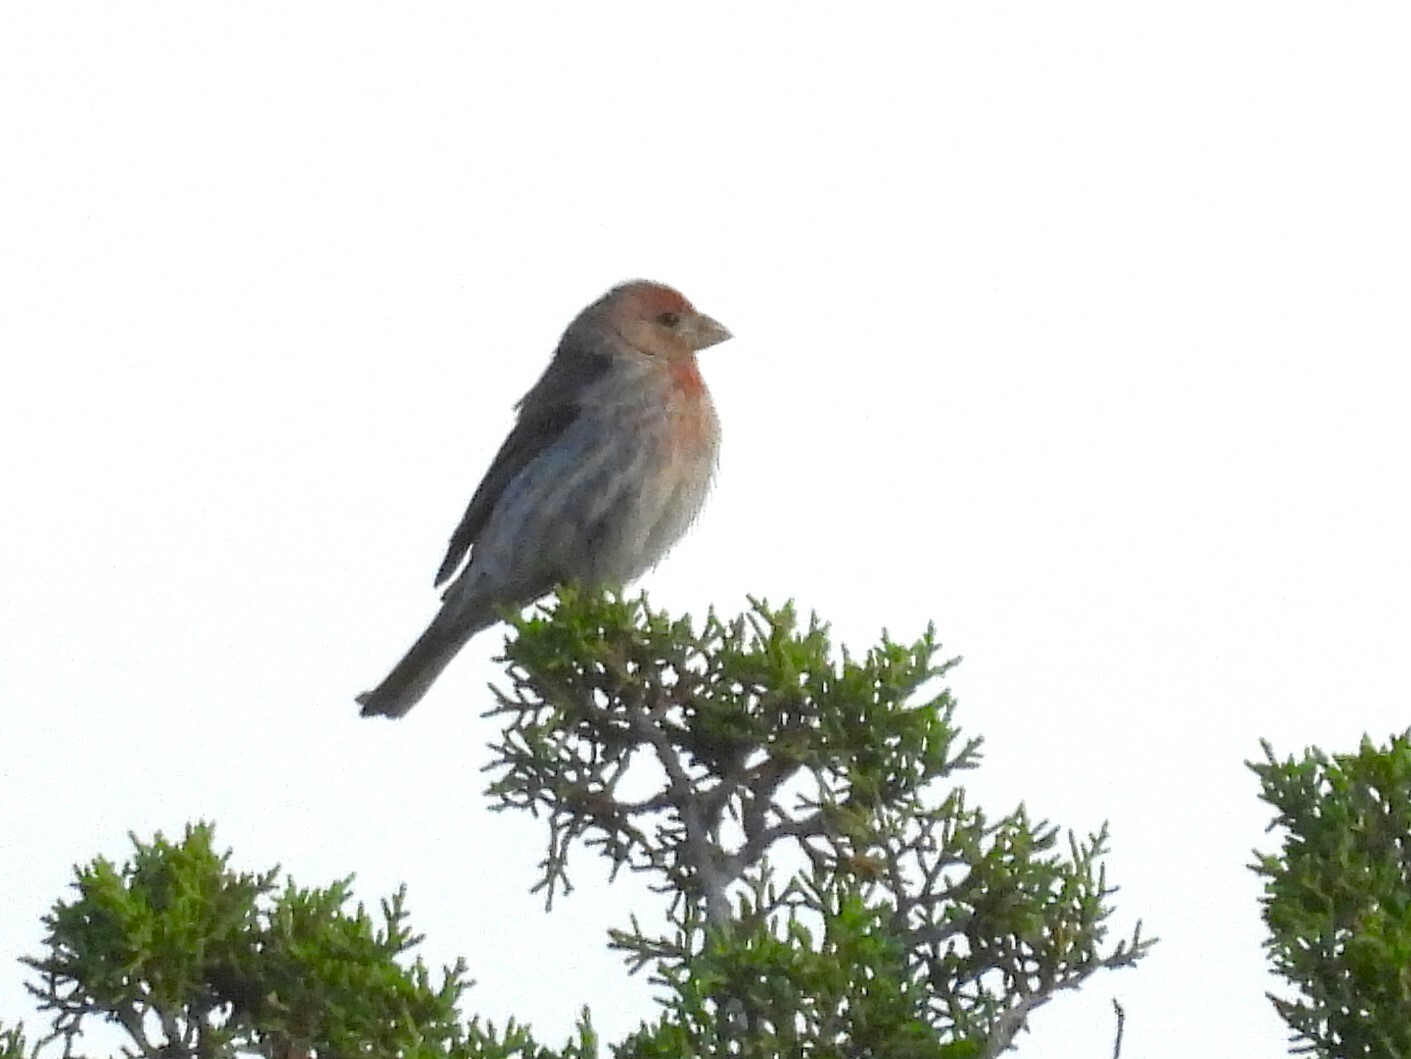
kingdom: Animalia
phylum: Chordata
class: Aves
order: Passeriformes
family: Fringillidae
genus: Haemorhous
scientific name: Haemorhous mexicanus
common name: House finch
